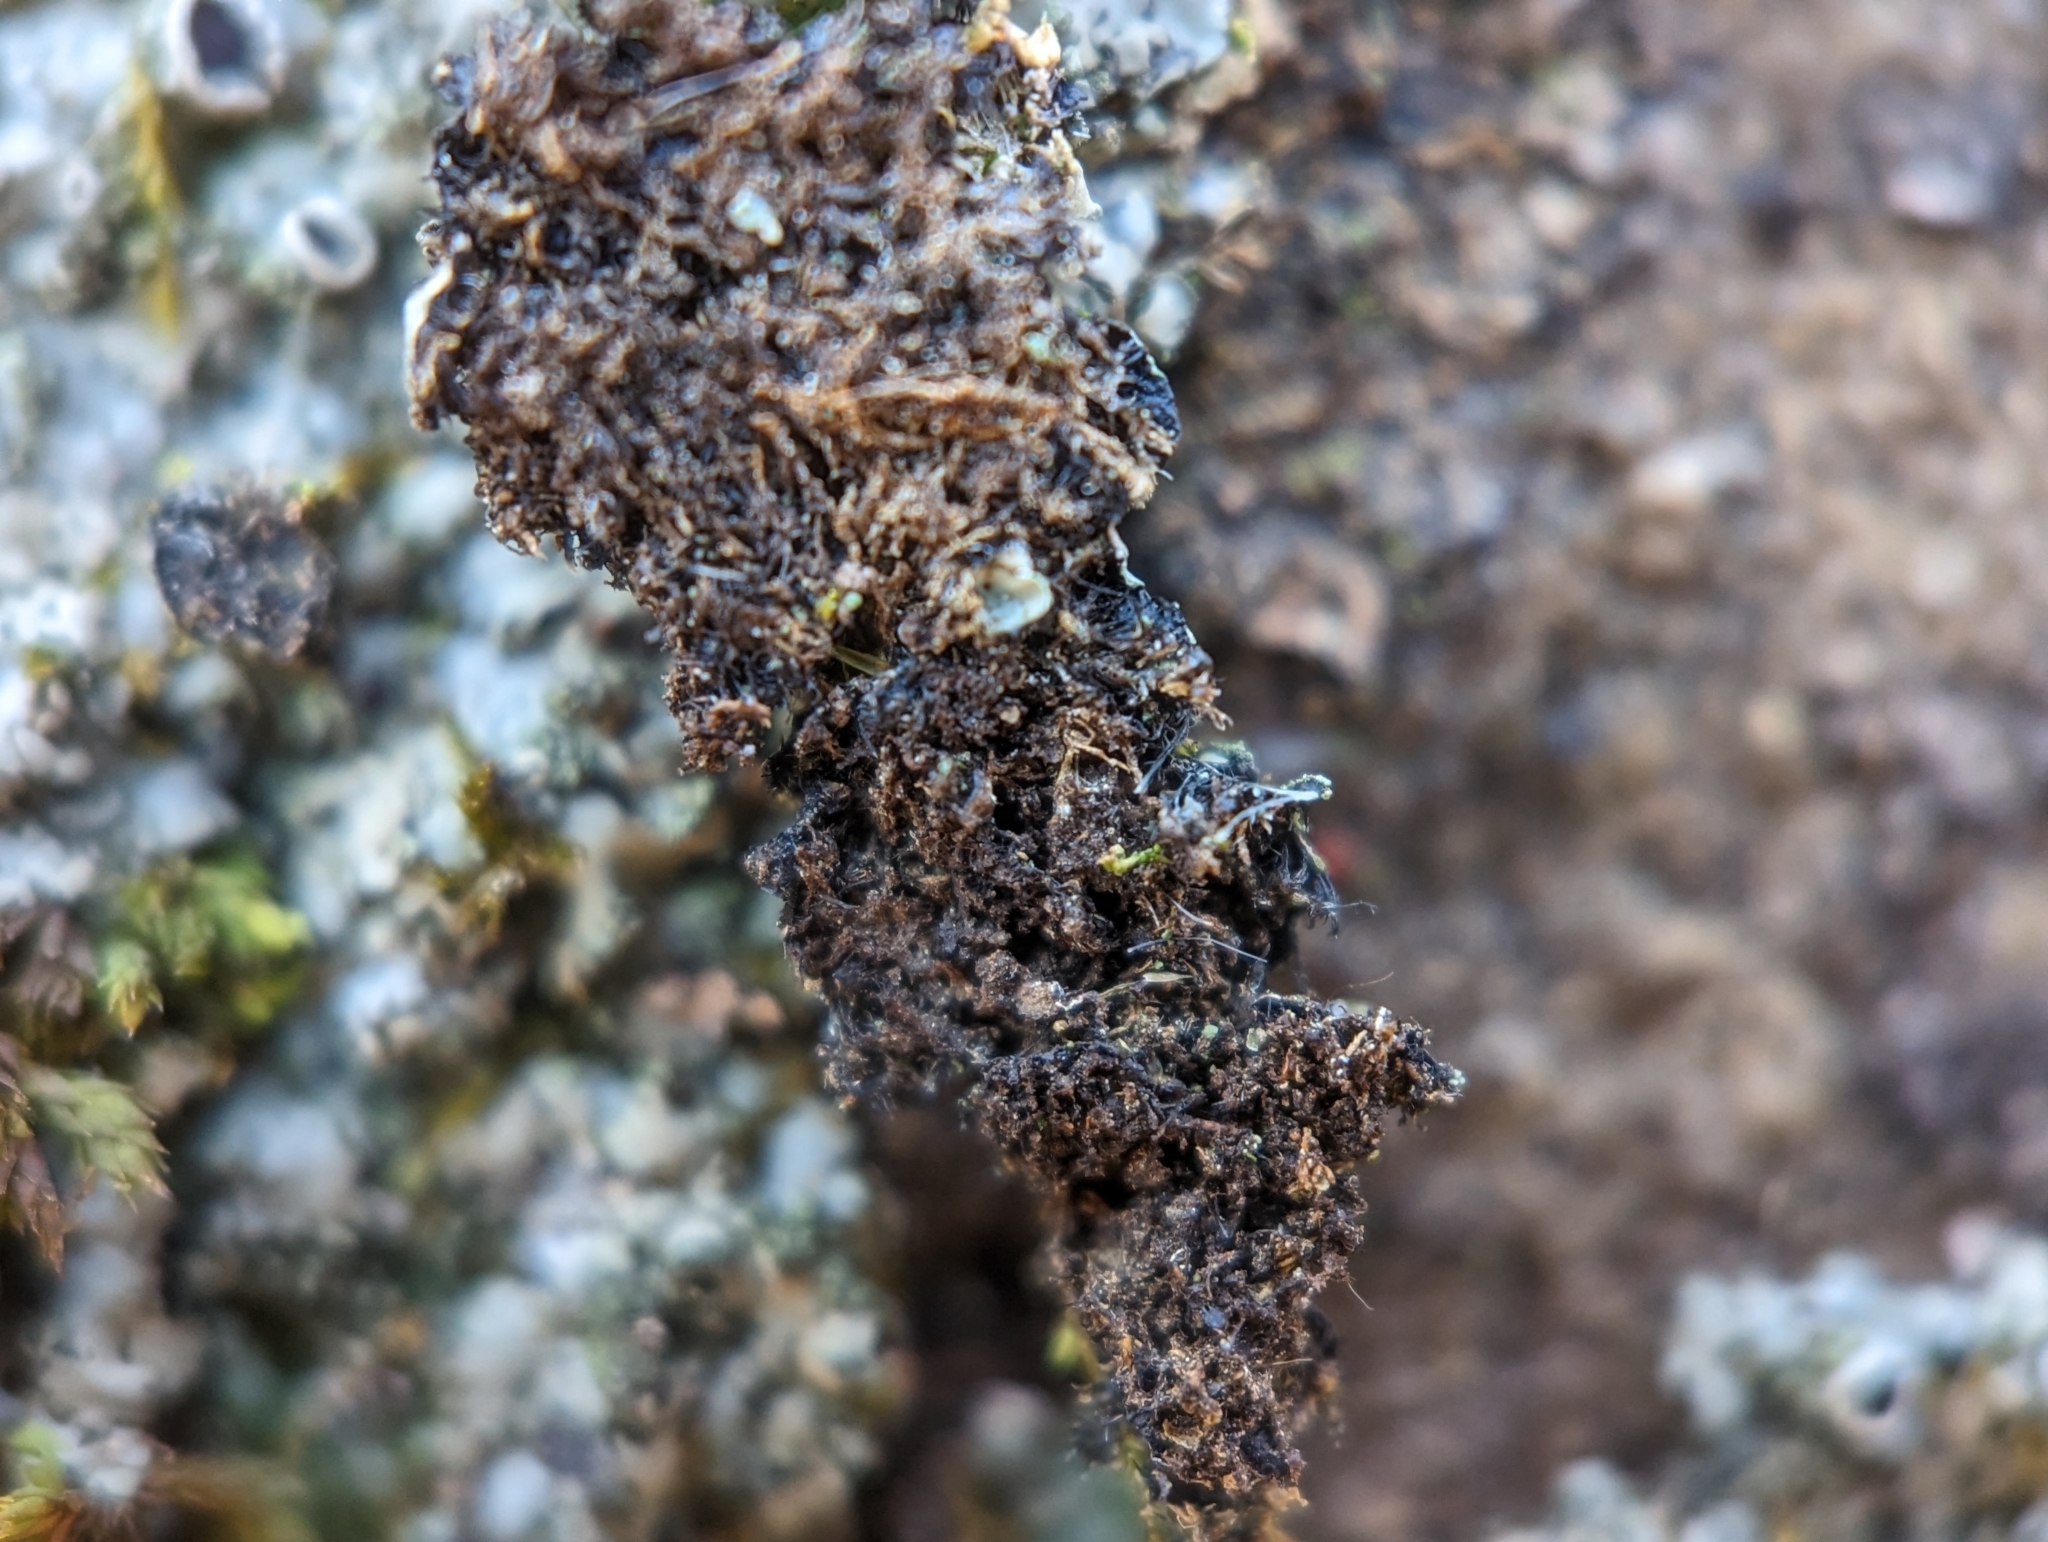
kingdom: Fungi
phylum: Ascomycota
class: Lecanoromycetes
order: Caliciales
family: Physciaceae
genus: Phaeophyscia
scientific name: Phaeophyscia adiastola
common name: Powder-tipped shadow lichen
